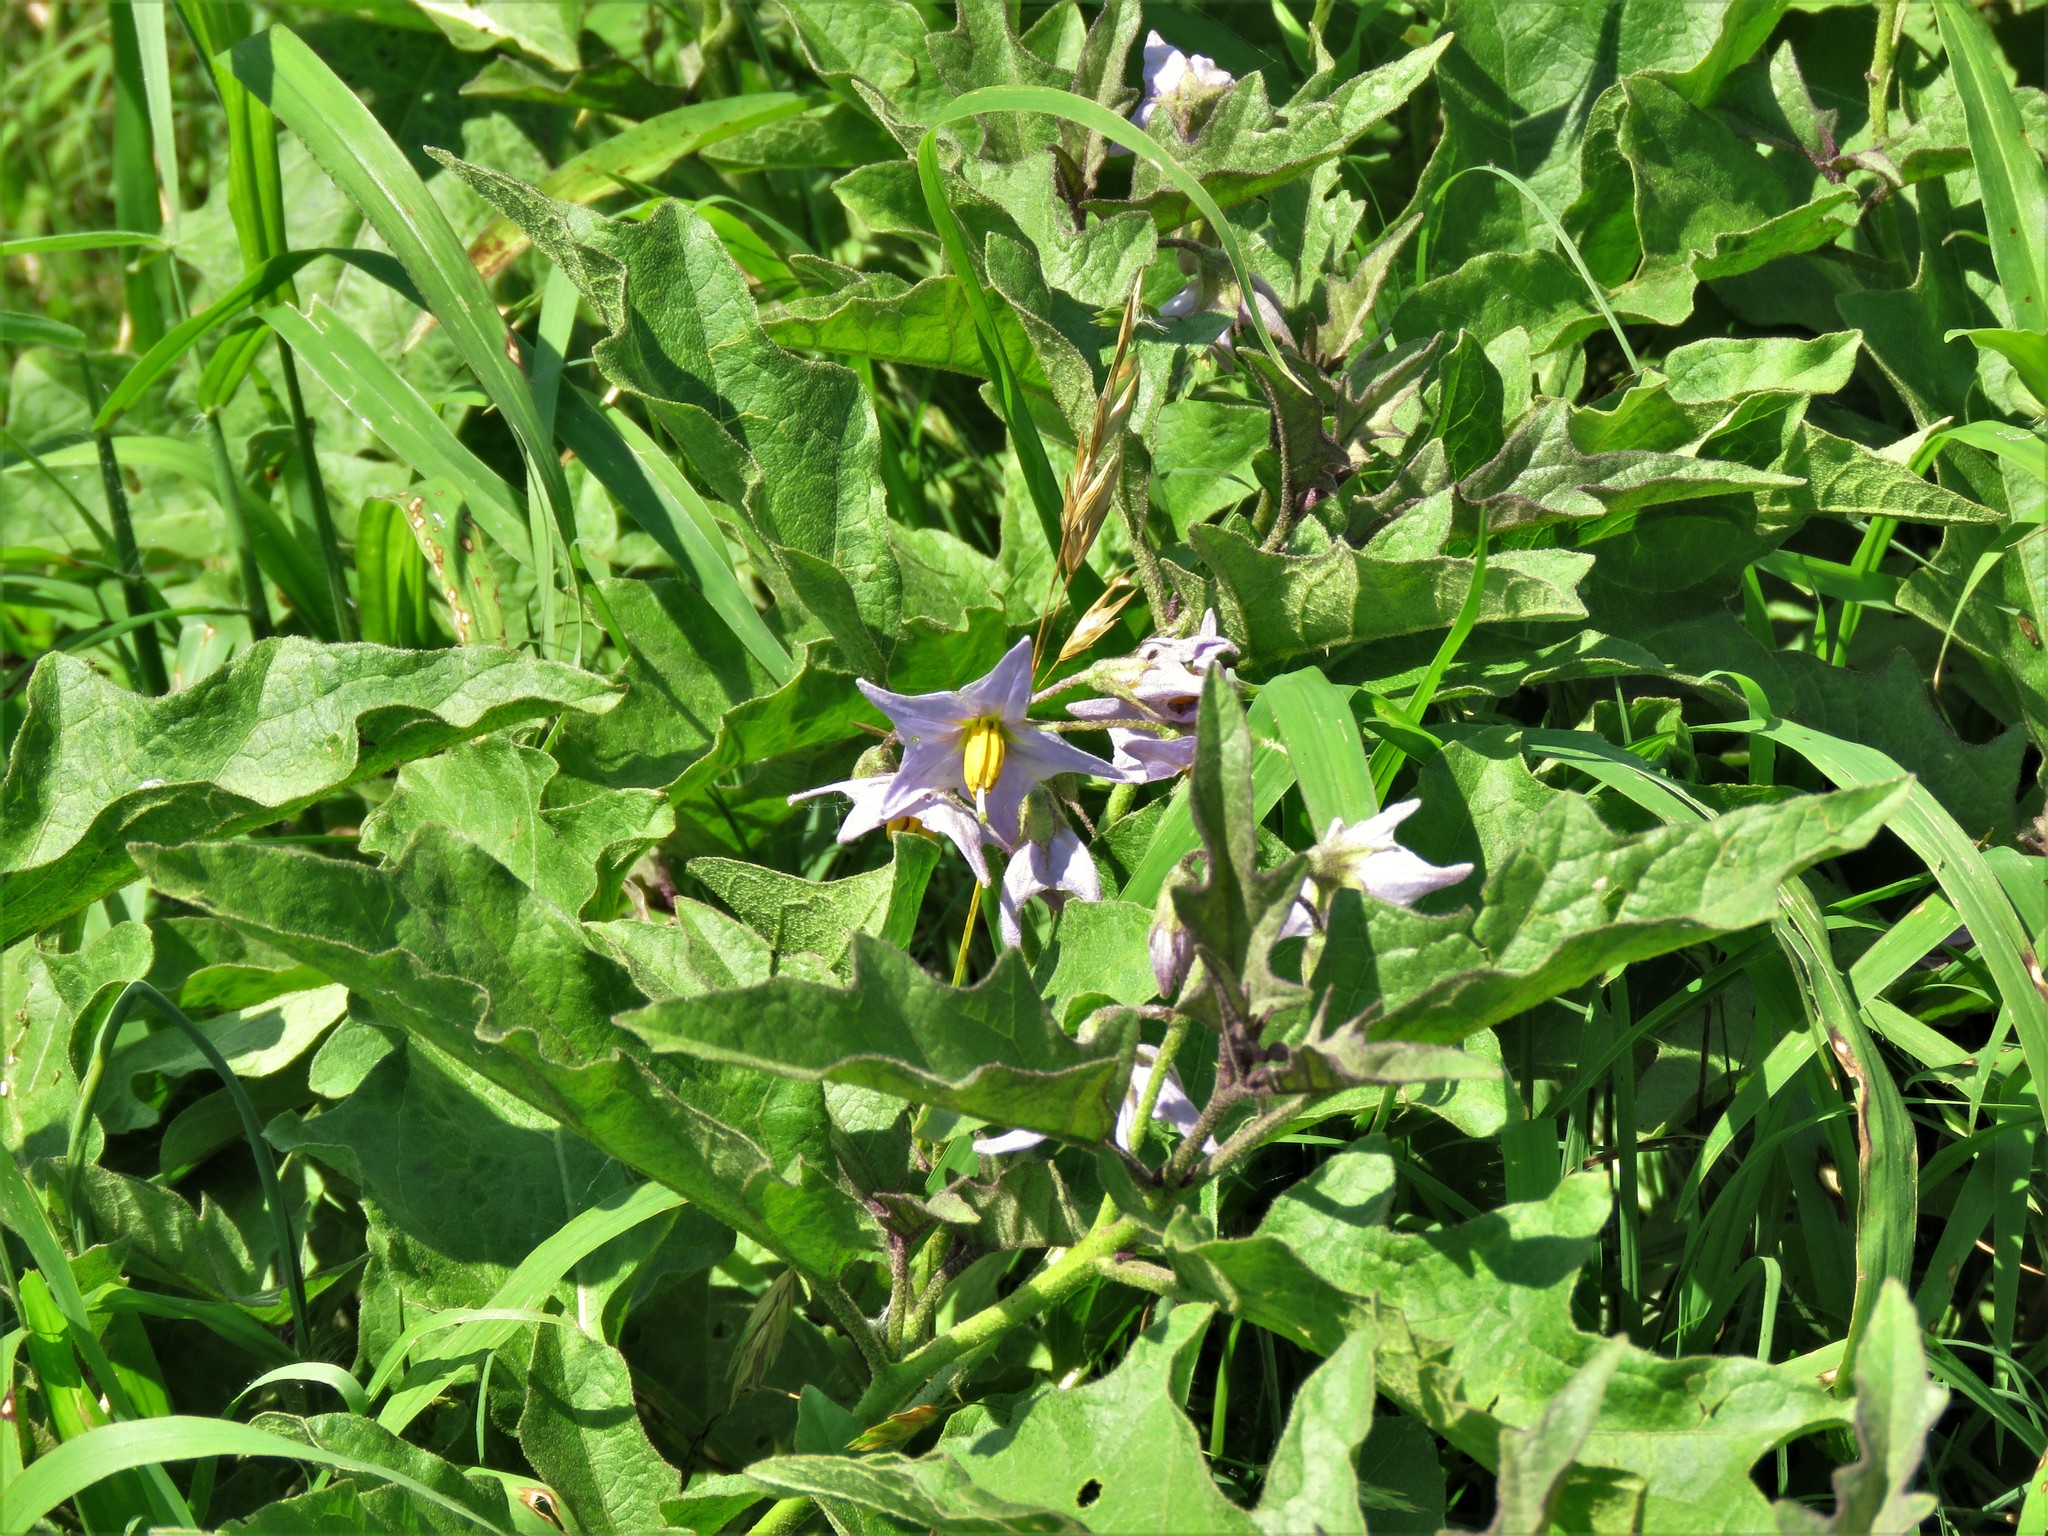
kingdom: Plantae
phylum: Tracheophyta
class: Magnoliopsida
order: Solanales
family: Solanaceae
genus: Solanum
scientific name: Solanum dimidiatum
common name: Carolina horse-nettle
